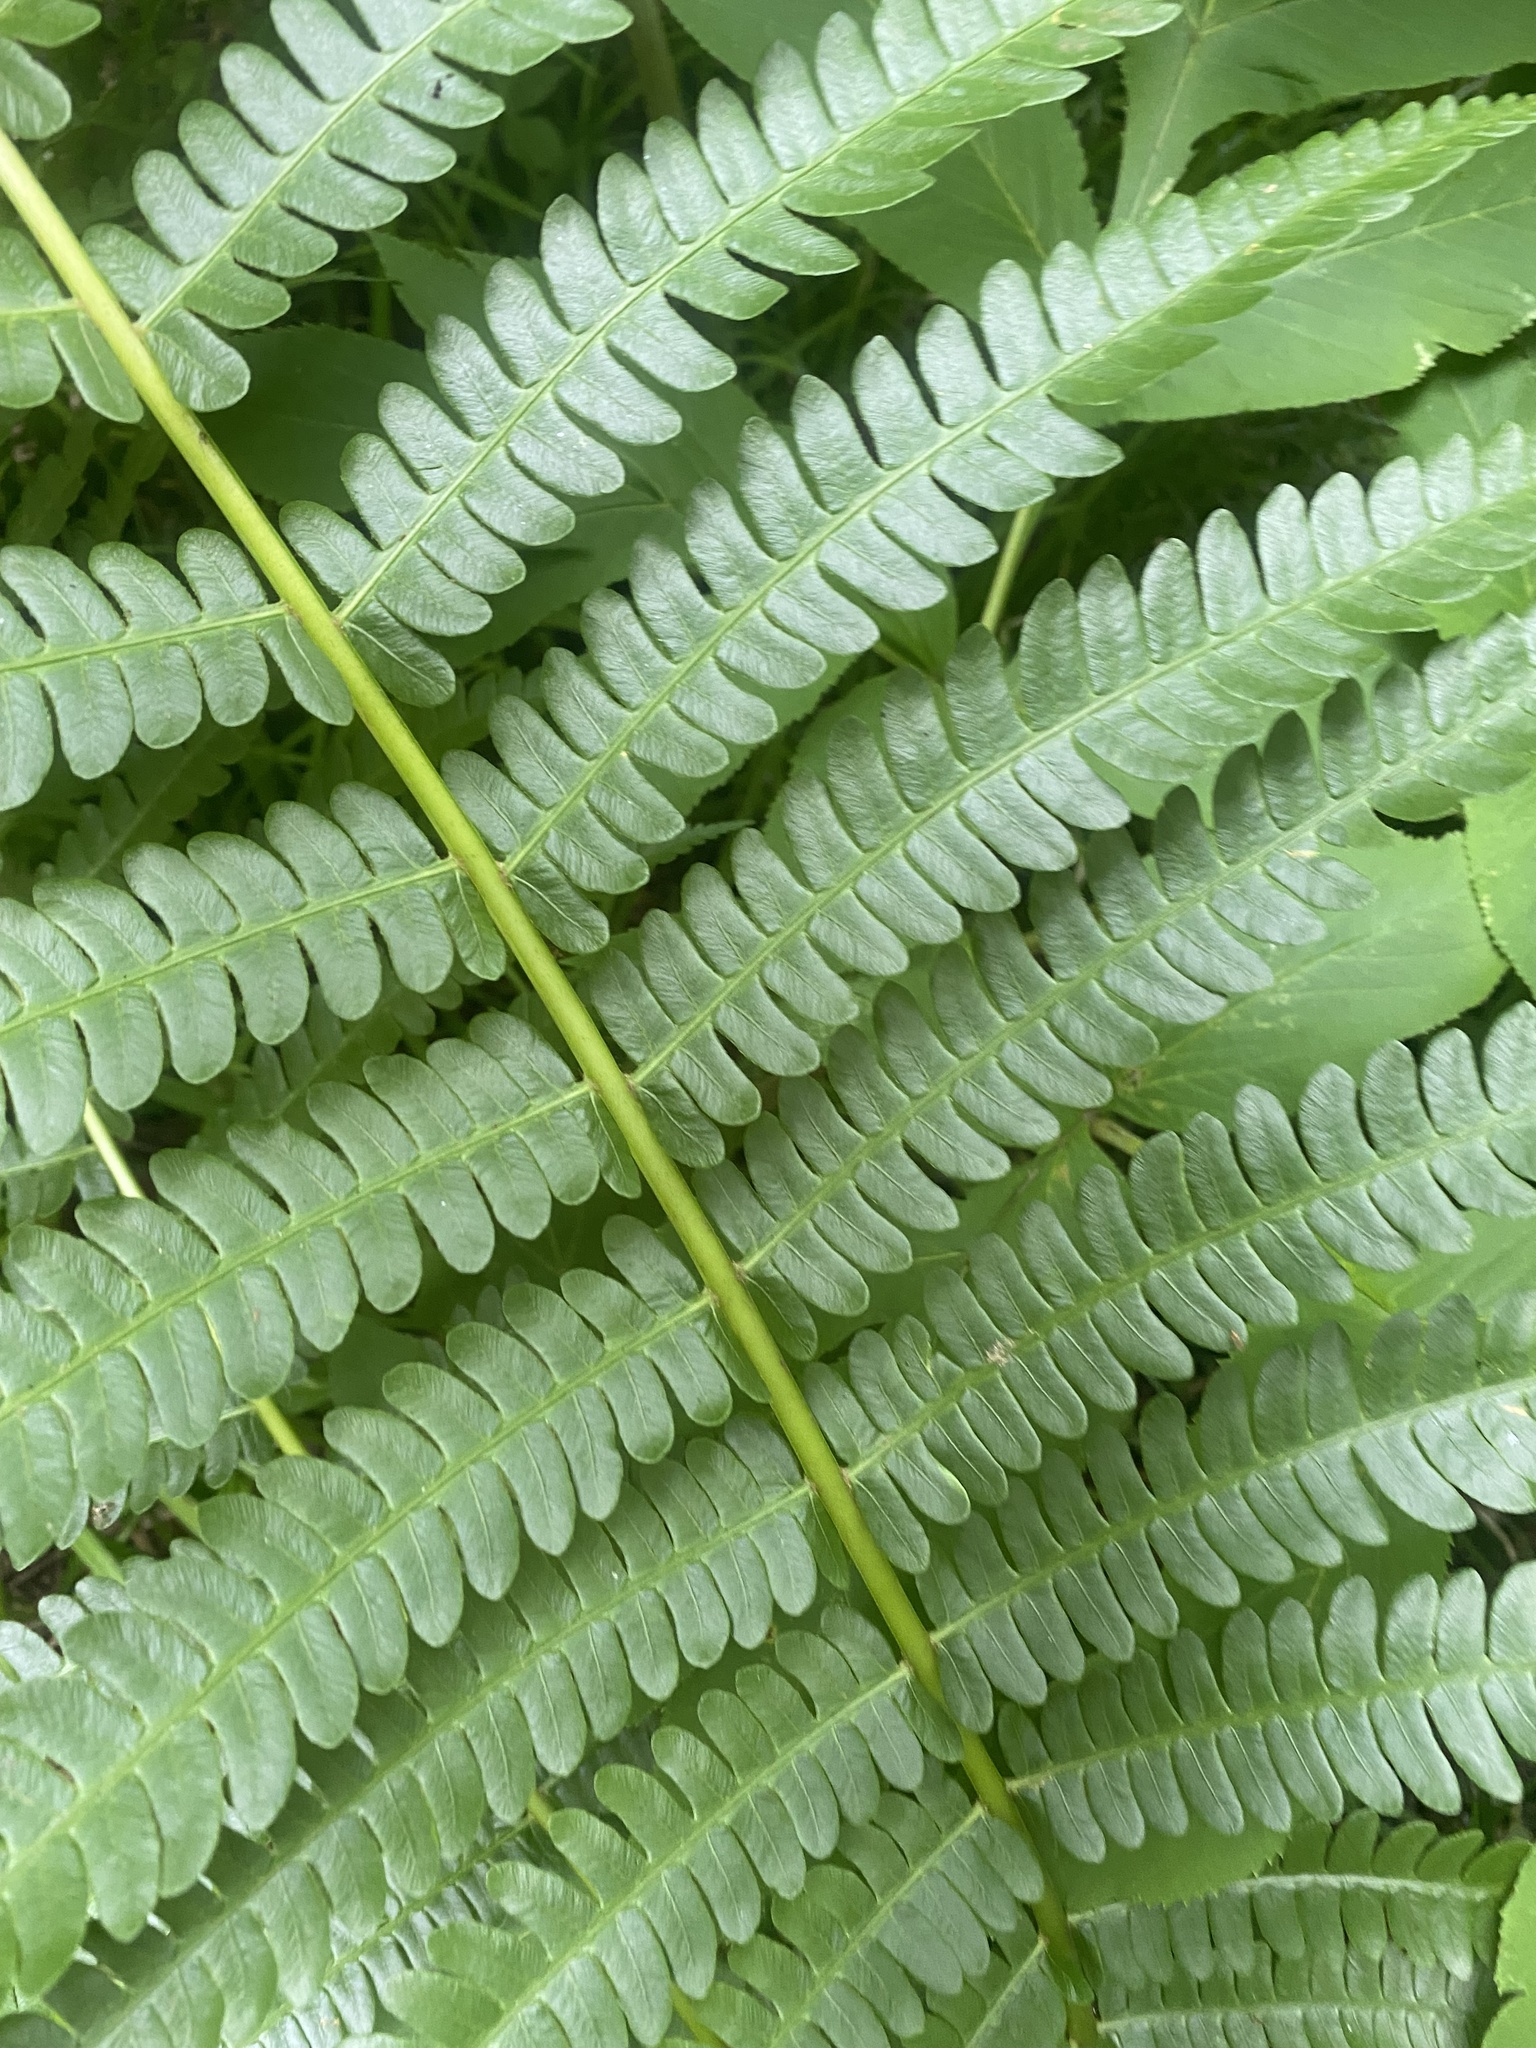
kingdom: Plantae
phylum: Tracheophyta
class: Polypodiopsida
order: Osmundales
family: Osmundaceae
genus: Osmundastrum
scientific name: Osmundastrum cinnamomeum
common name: Cinnamon fern
